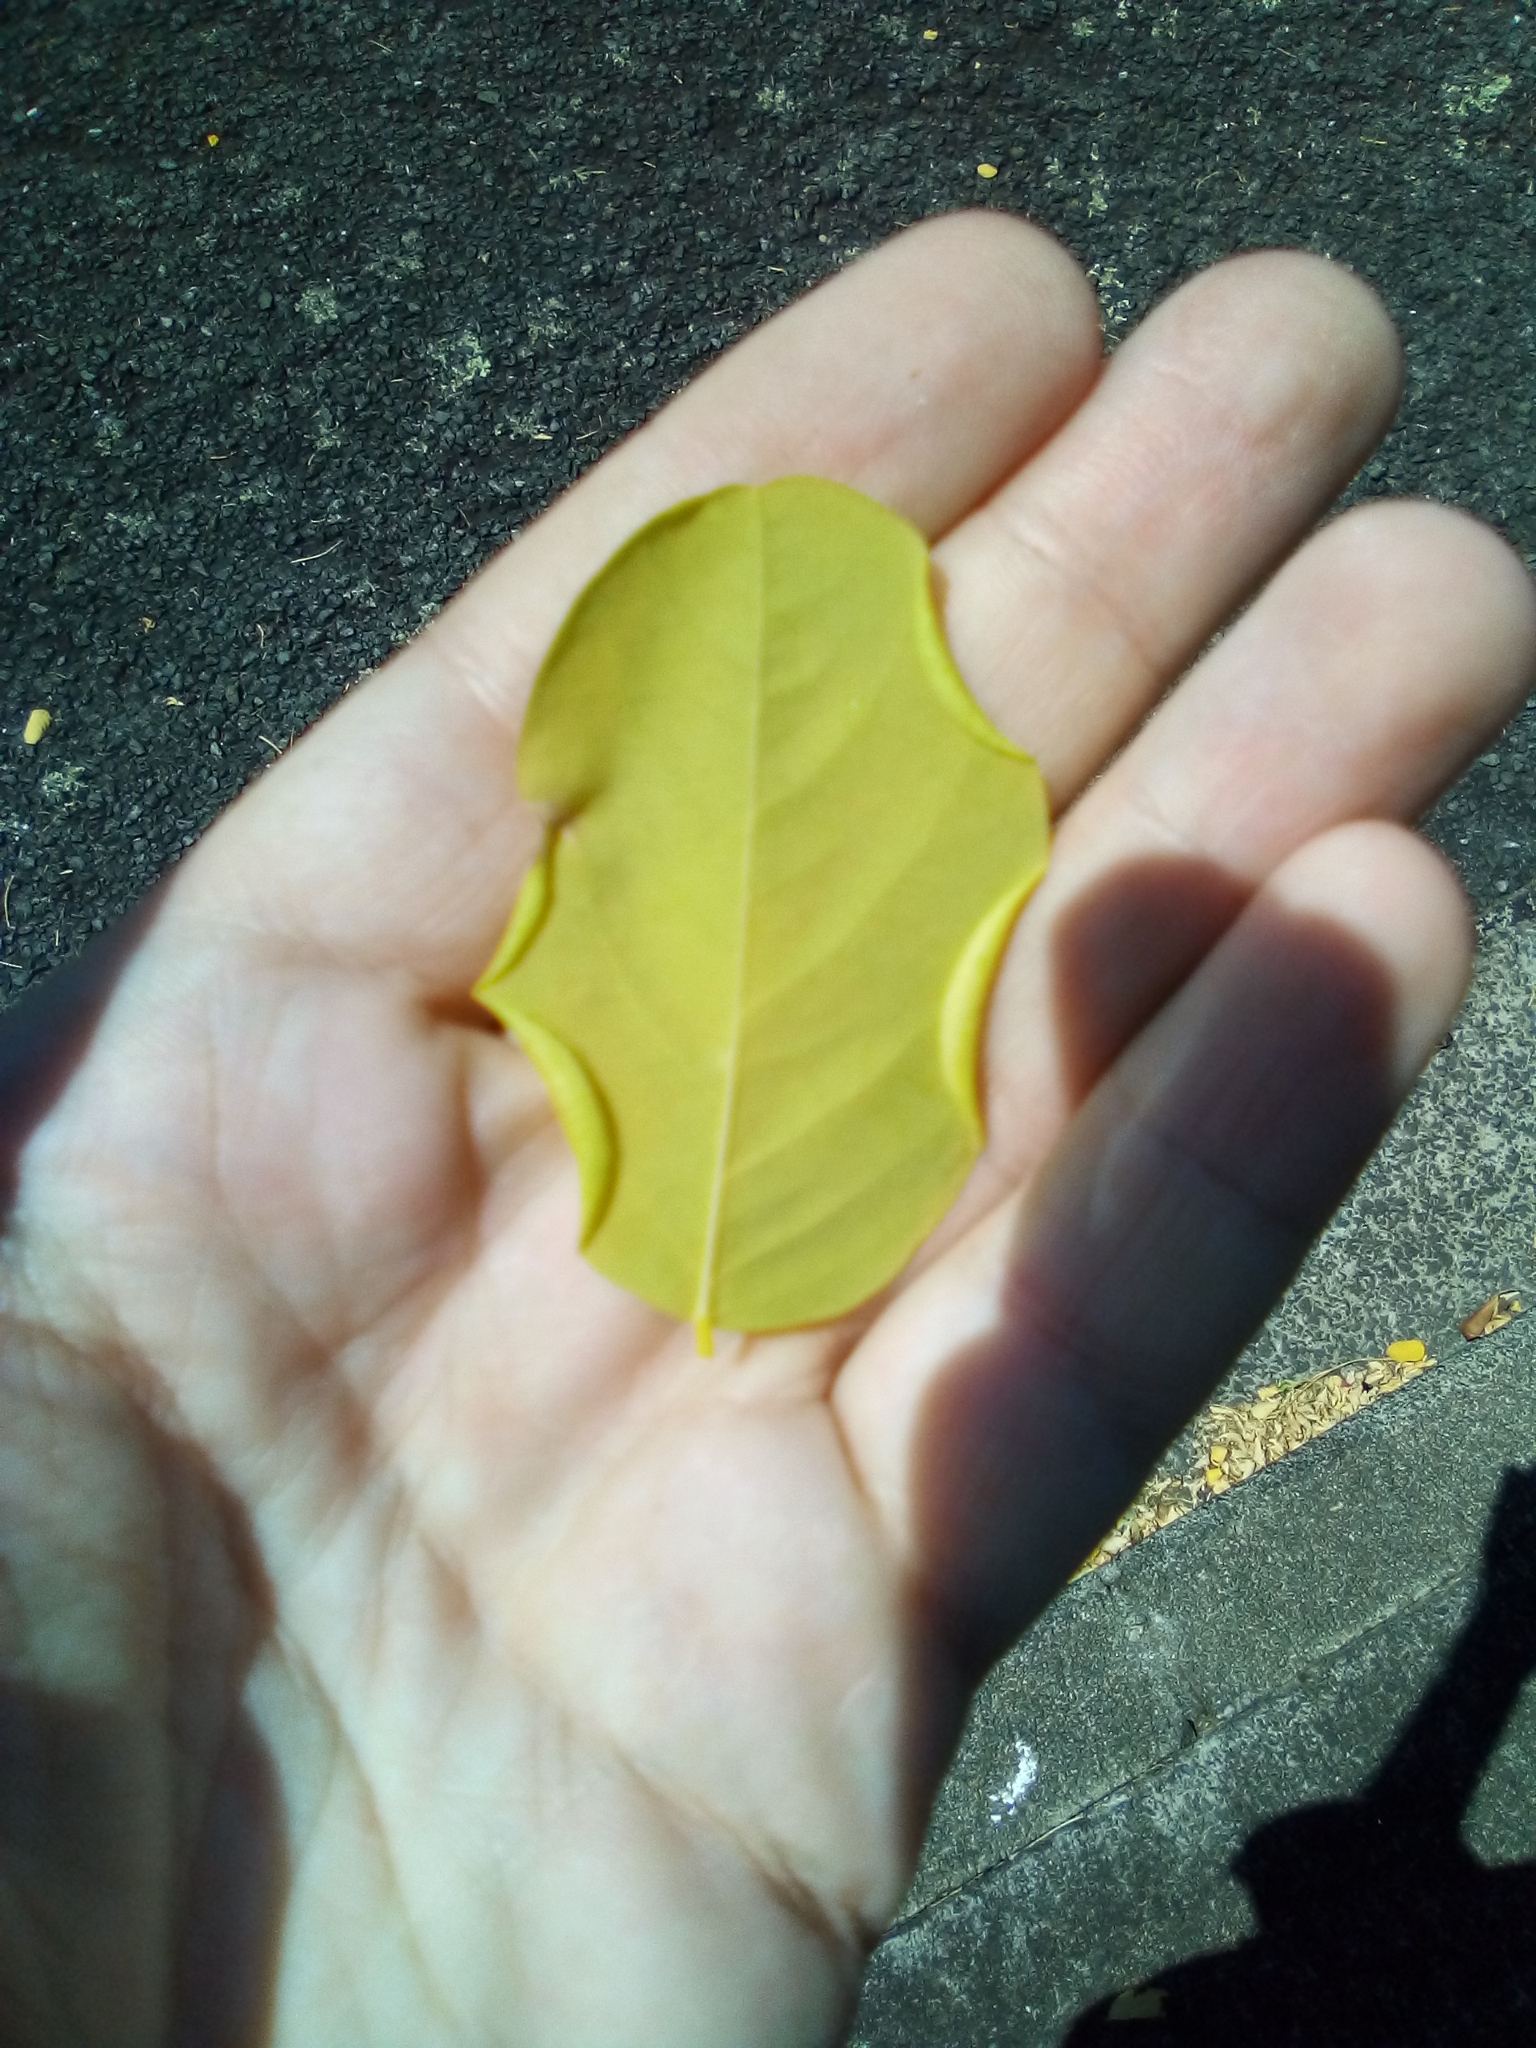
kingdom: Animalia
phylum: Arthropoda
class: Insecta
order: Diptera
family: Cecidomyiidae
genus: Obolodiplosis
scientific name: Obolodiplosis robiniae
